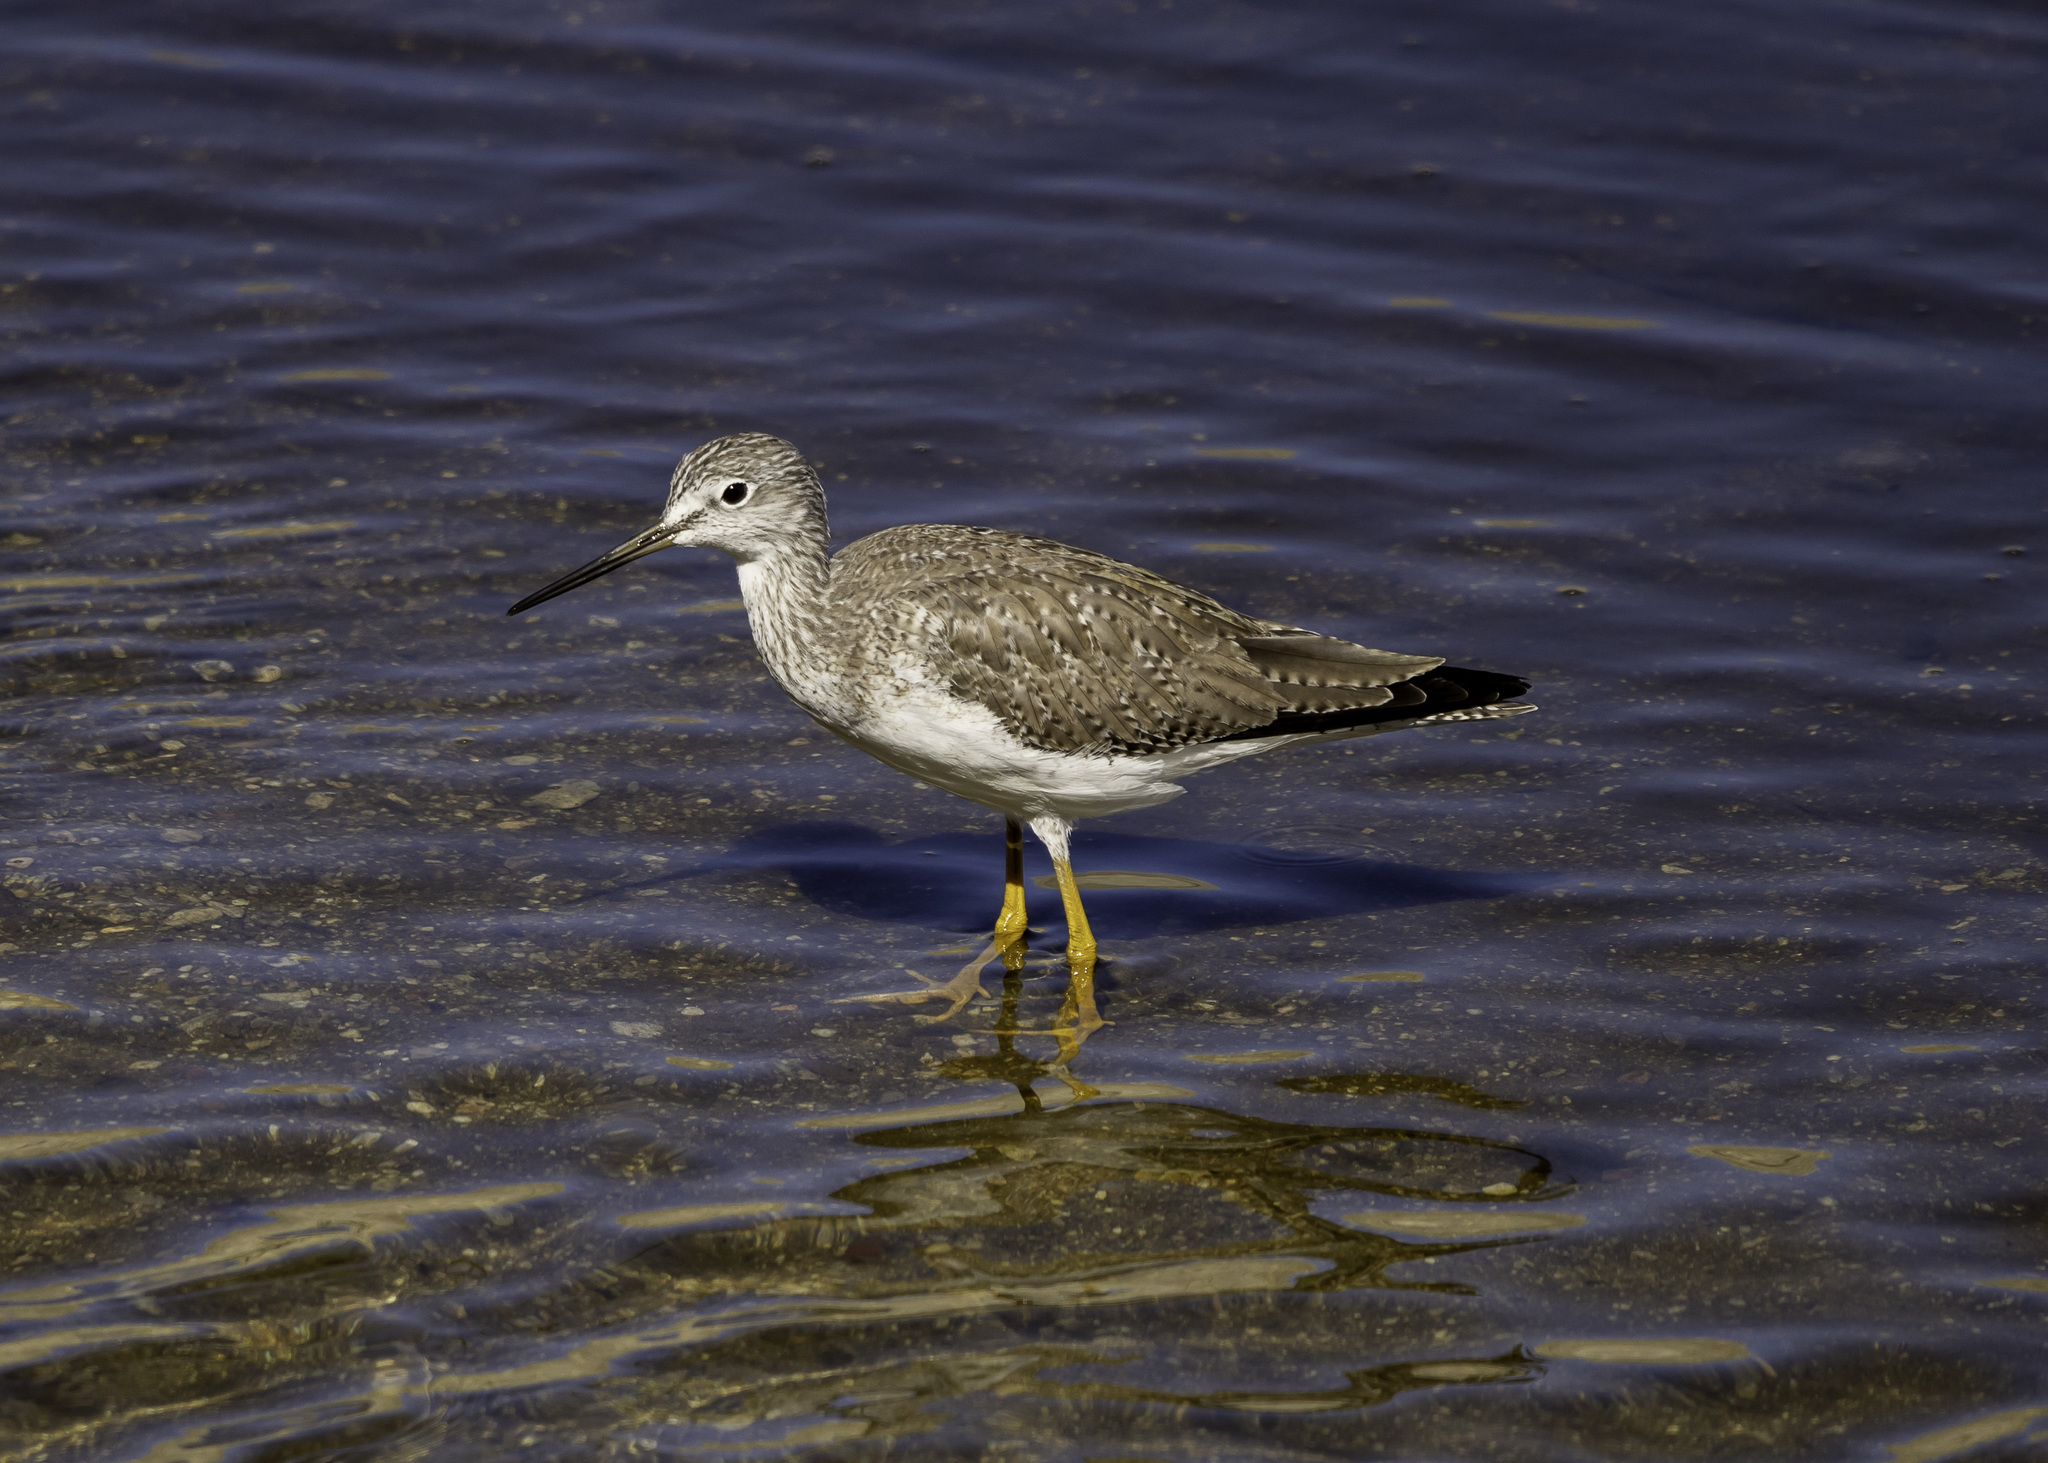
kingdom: Animalia
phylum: Chordata
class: Aves
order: Charadriiformes
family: Scolopacidae
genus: Tringa
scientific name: Tringa melanoleuca
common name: Greater yellowlegs
